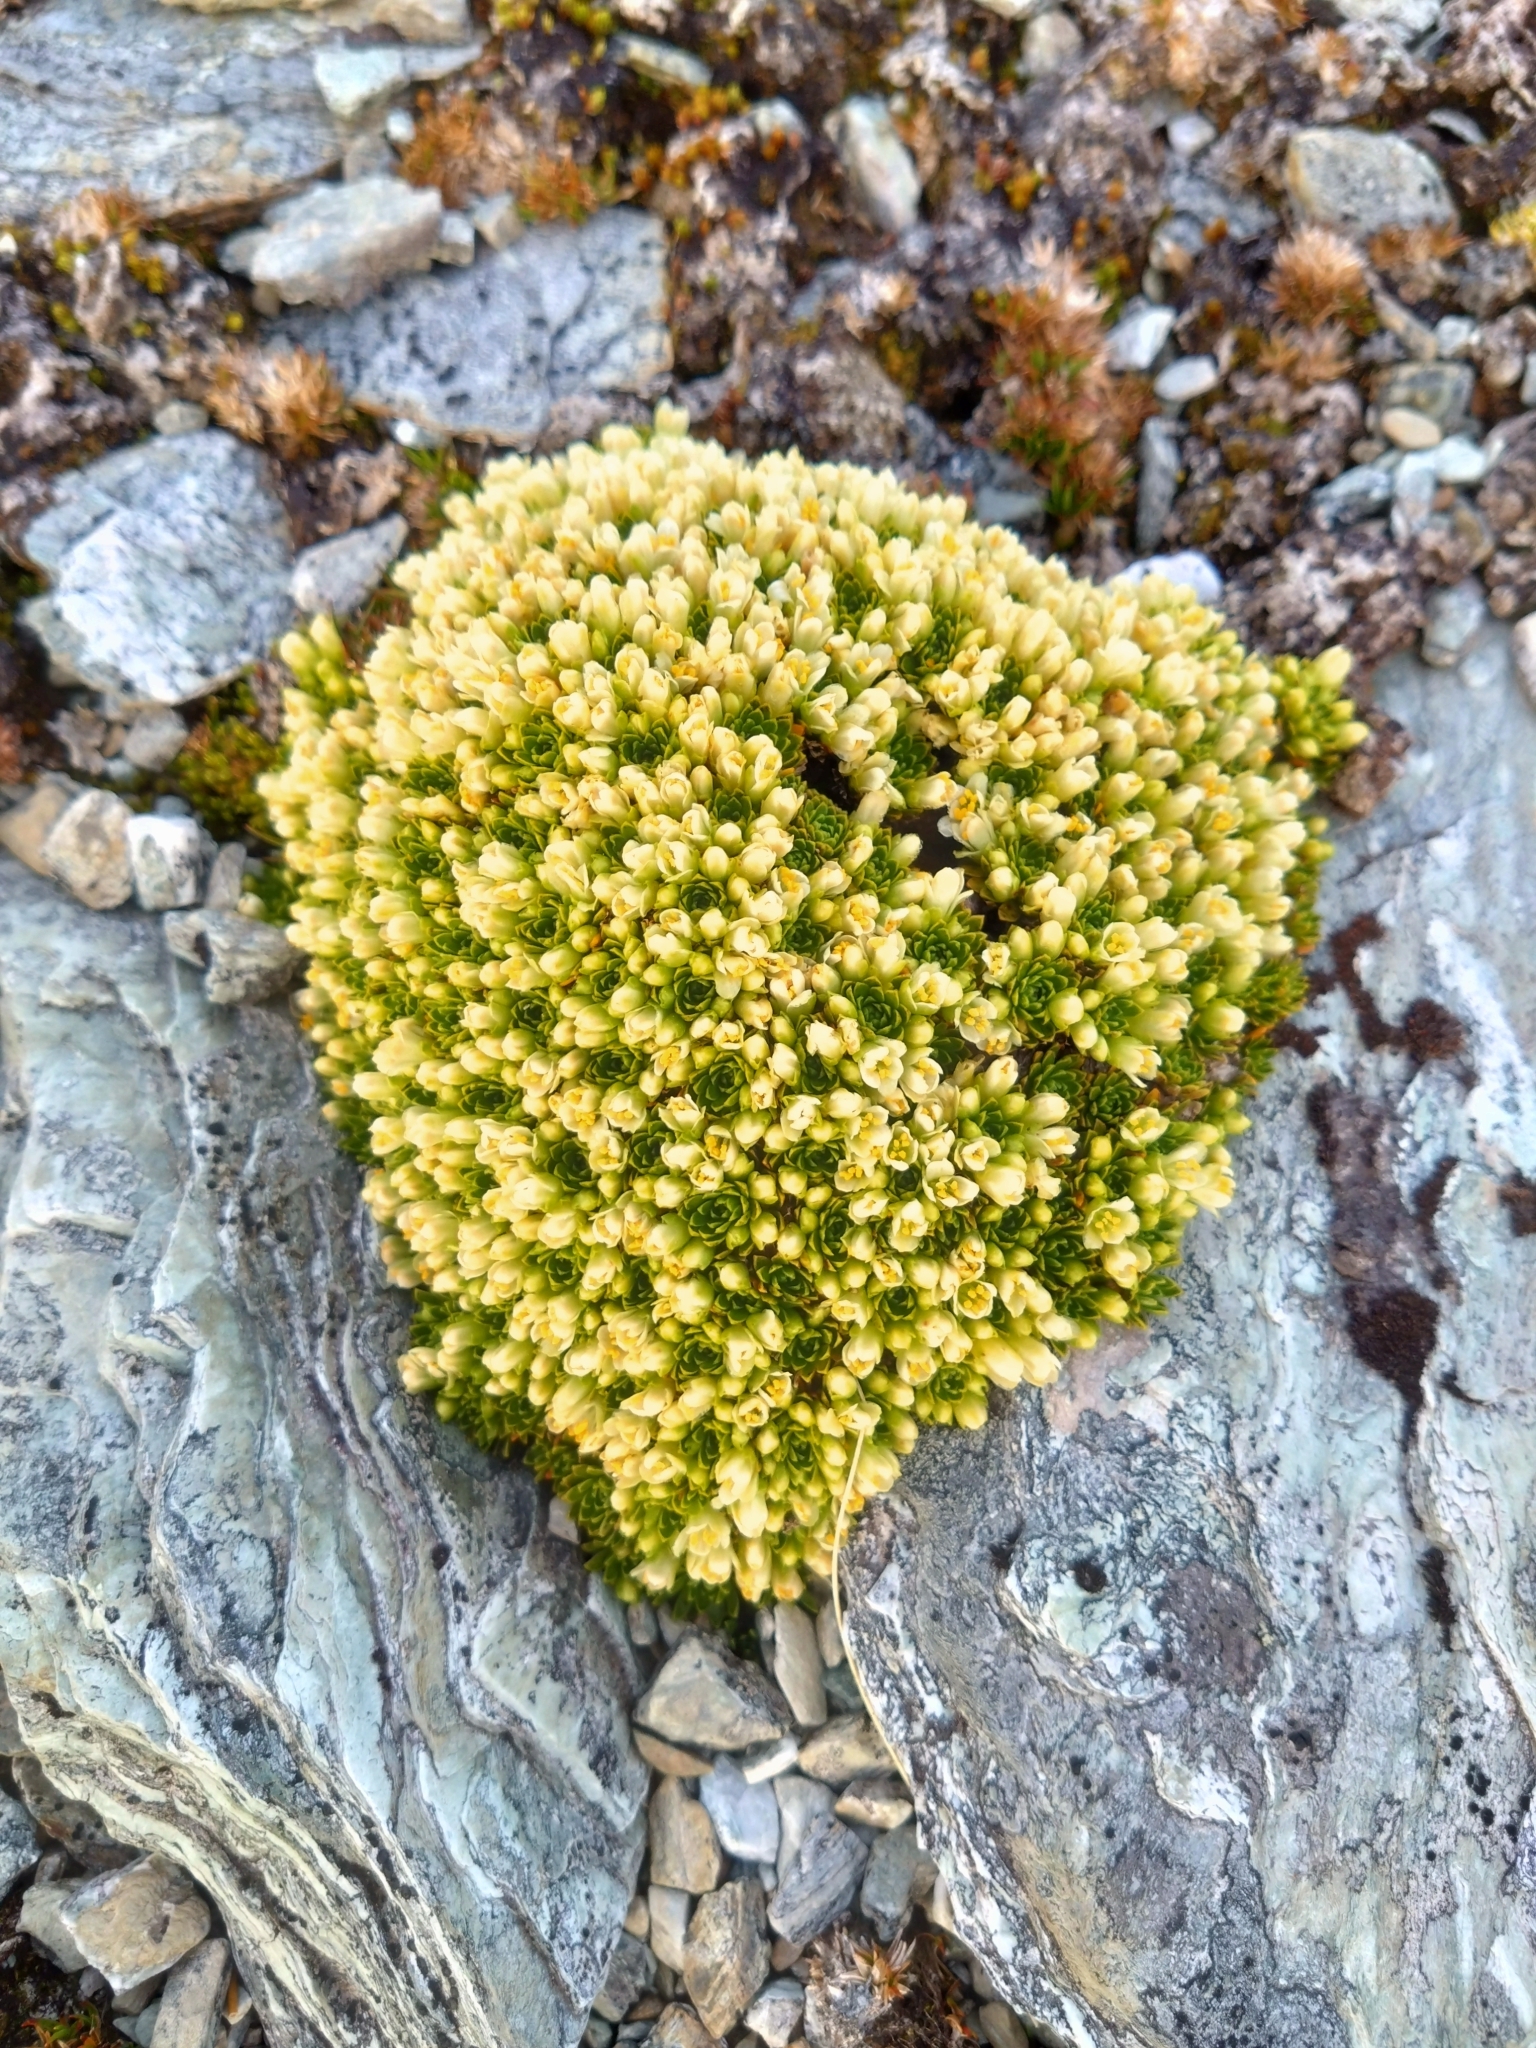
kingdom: Plantae
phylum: Tracheophyta
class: Magnoliopsida
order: Caryophyllales
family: Montiaceae
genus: Hectorella
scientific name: Hectorella caespitosa
